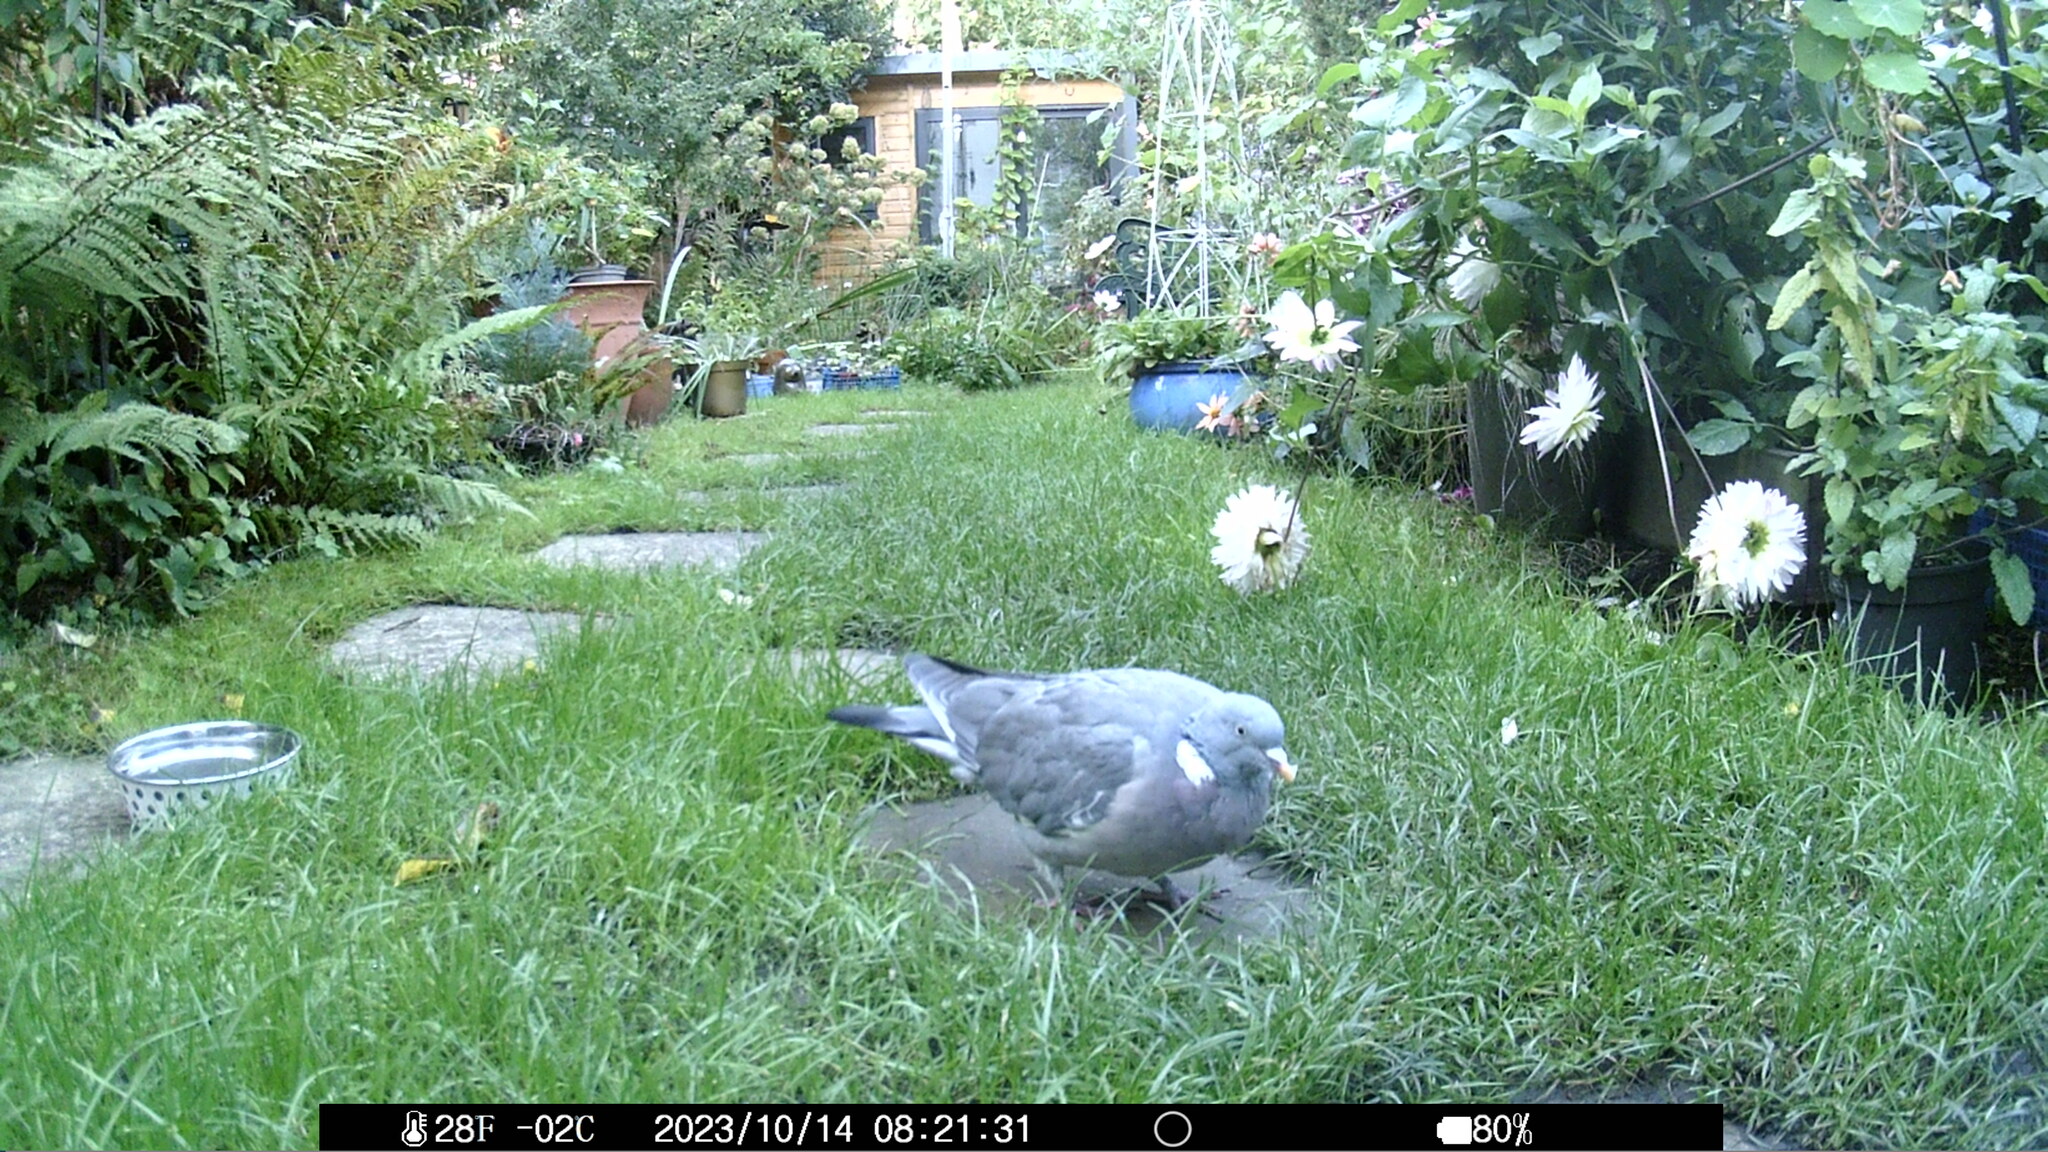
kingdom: Animalia
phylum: Chordata
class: Aves
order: Columbiformes
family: Columbidae
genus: Columba
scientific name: Columba palumbus
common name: Common wood pigeon
